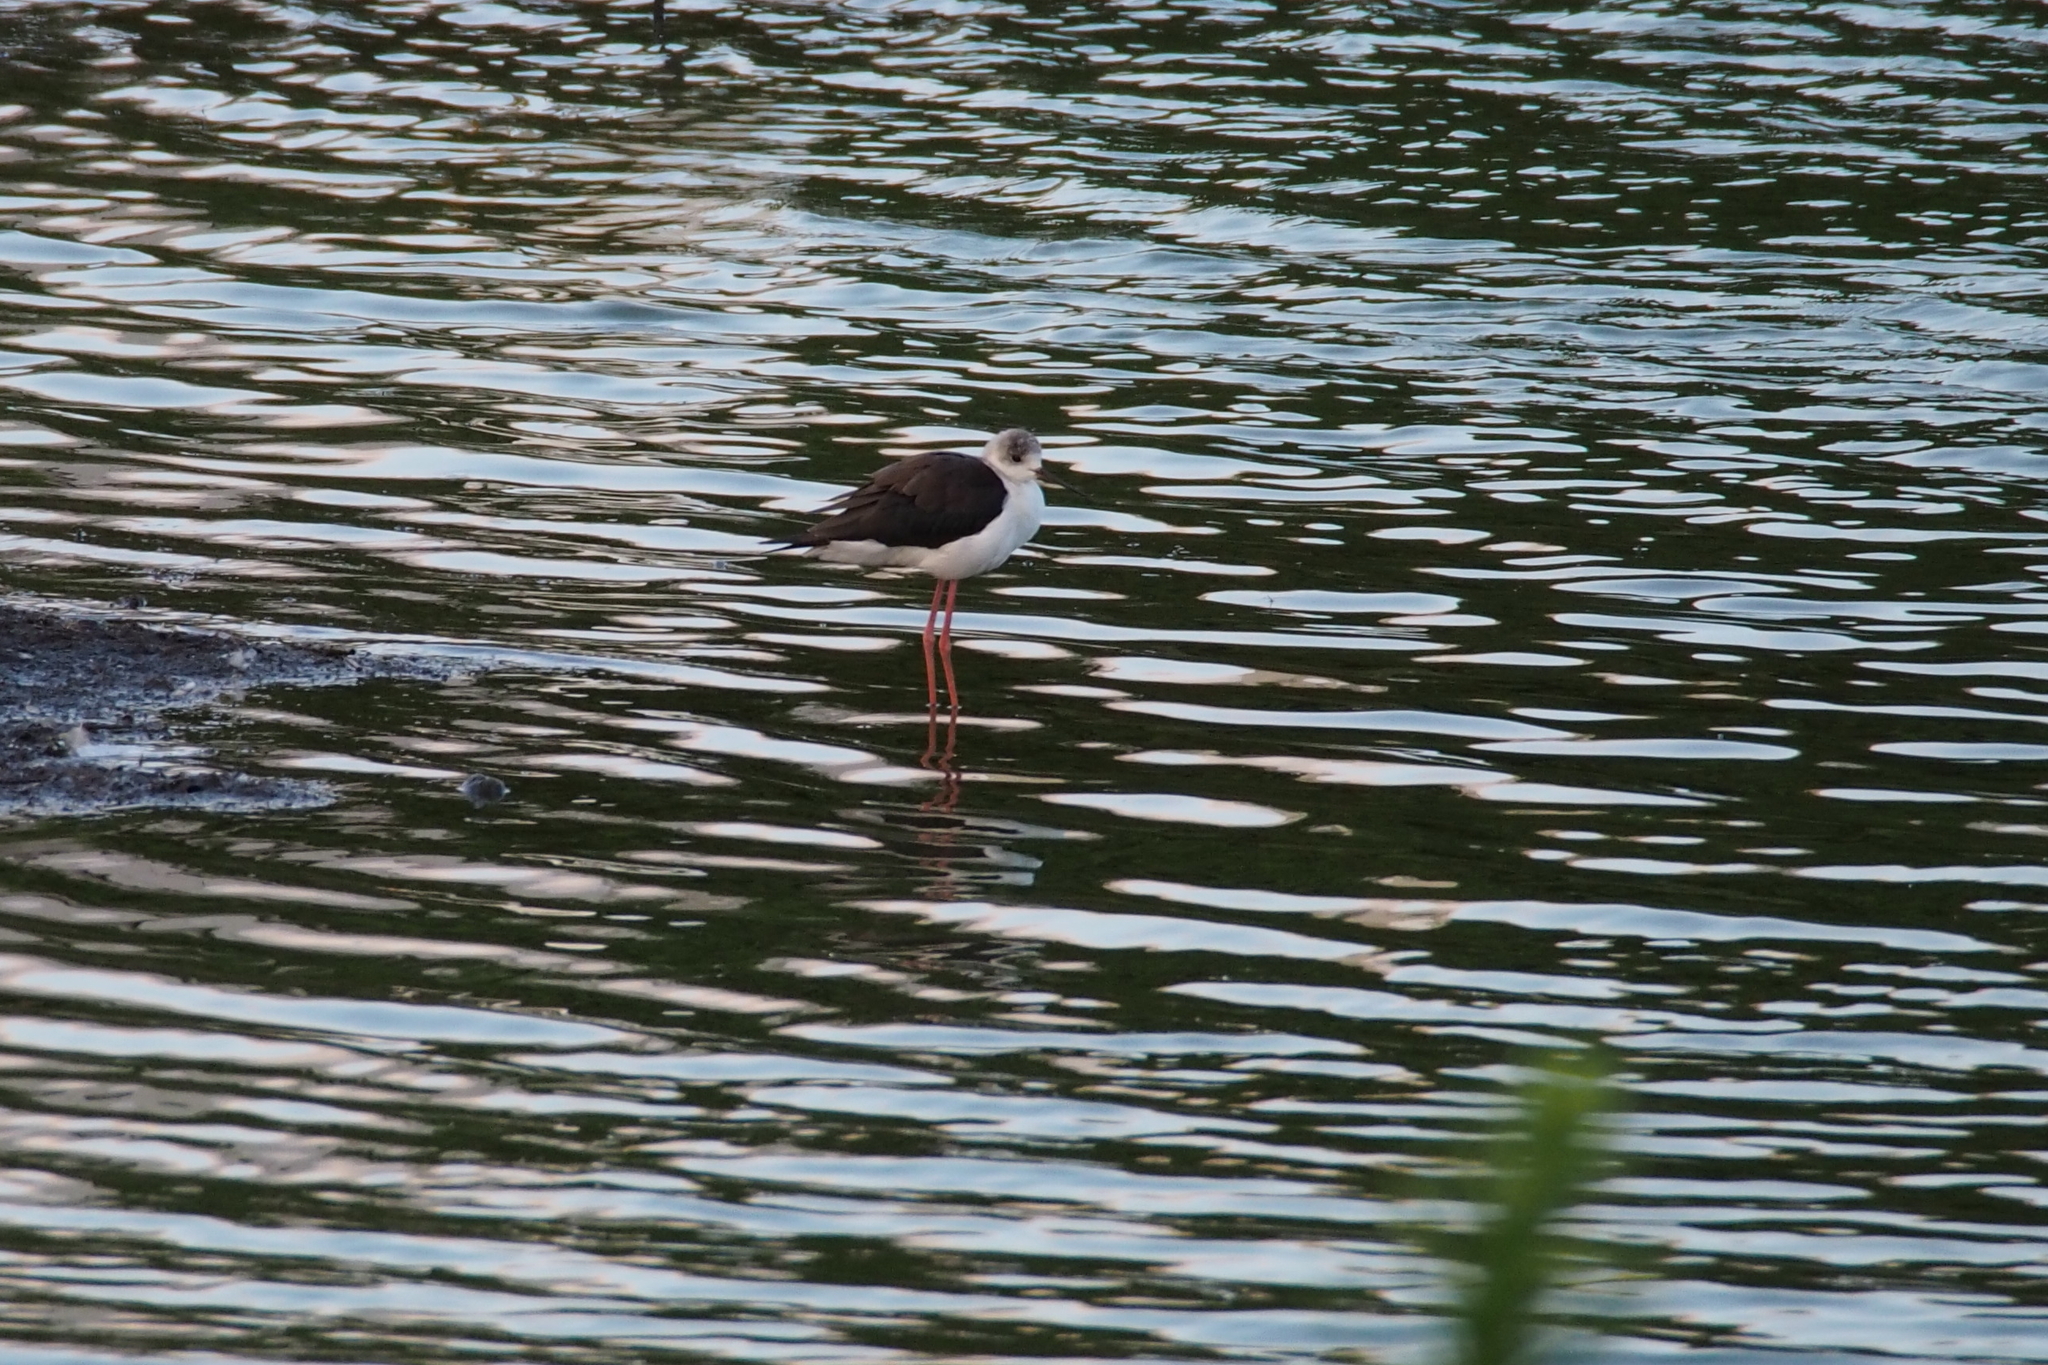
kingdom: Animalia
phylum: Chordata
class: Aves
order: Charadriiformes
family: Recurvirostridae
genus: Himantopus
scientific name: Himantopus himantopus
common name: Black-winged stilt
